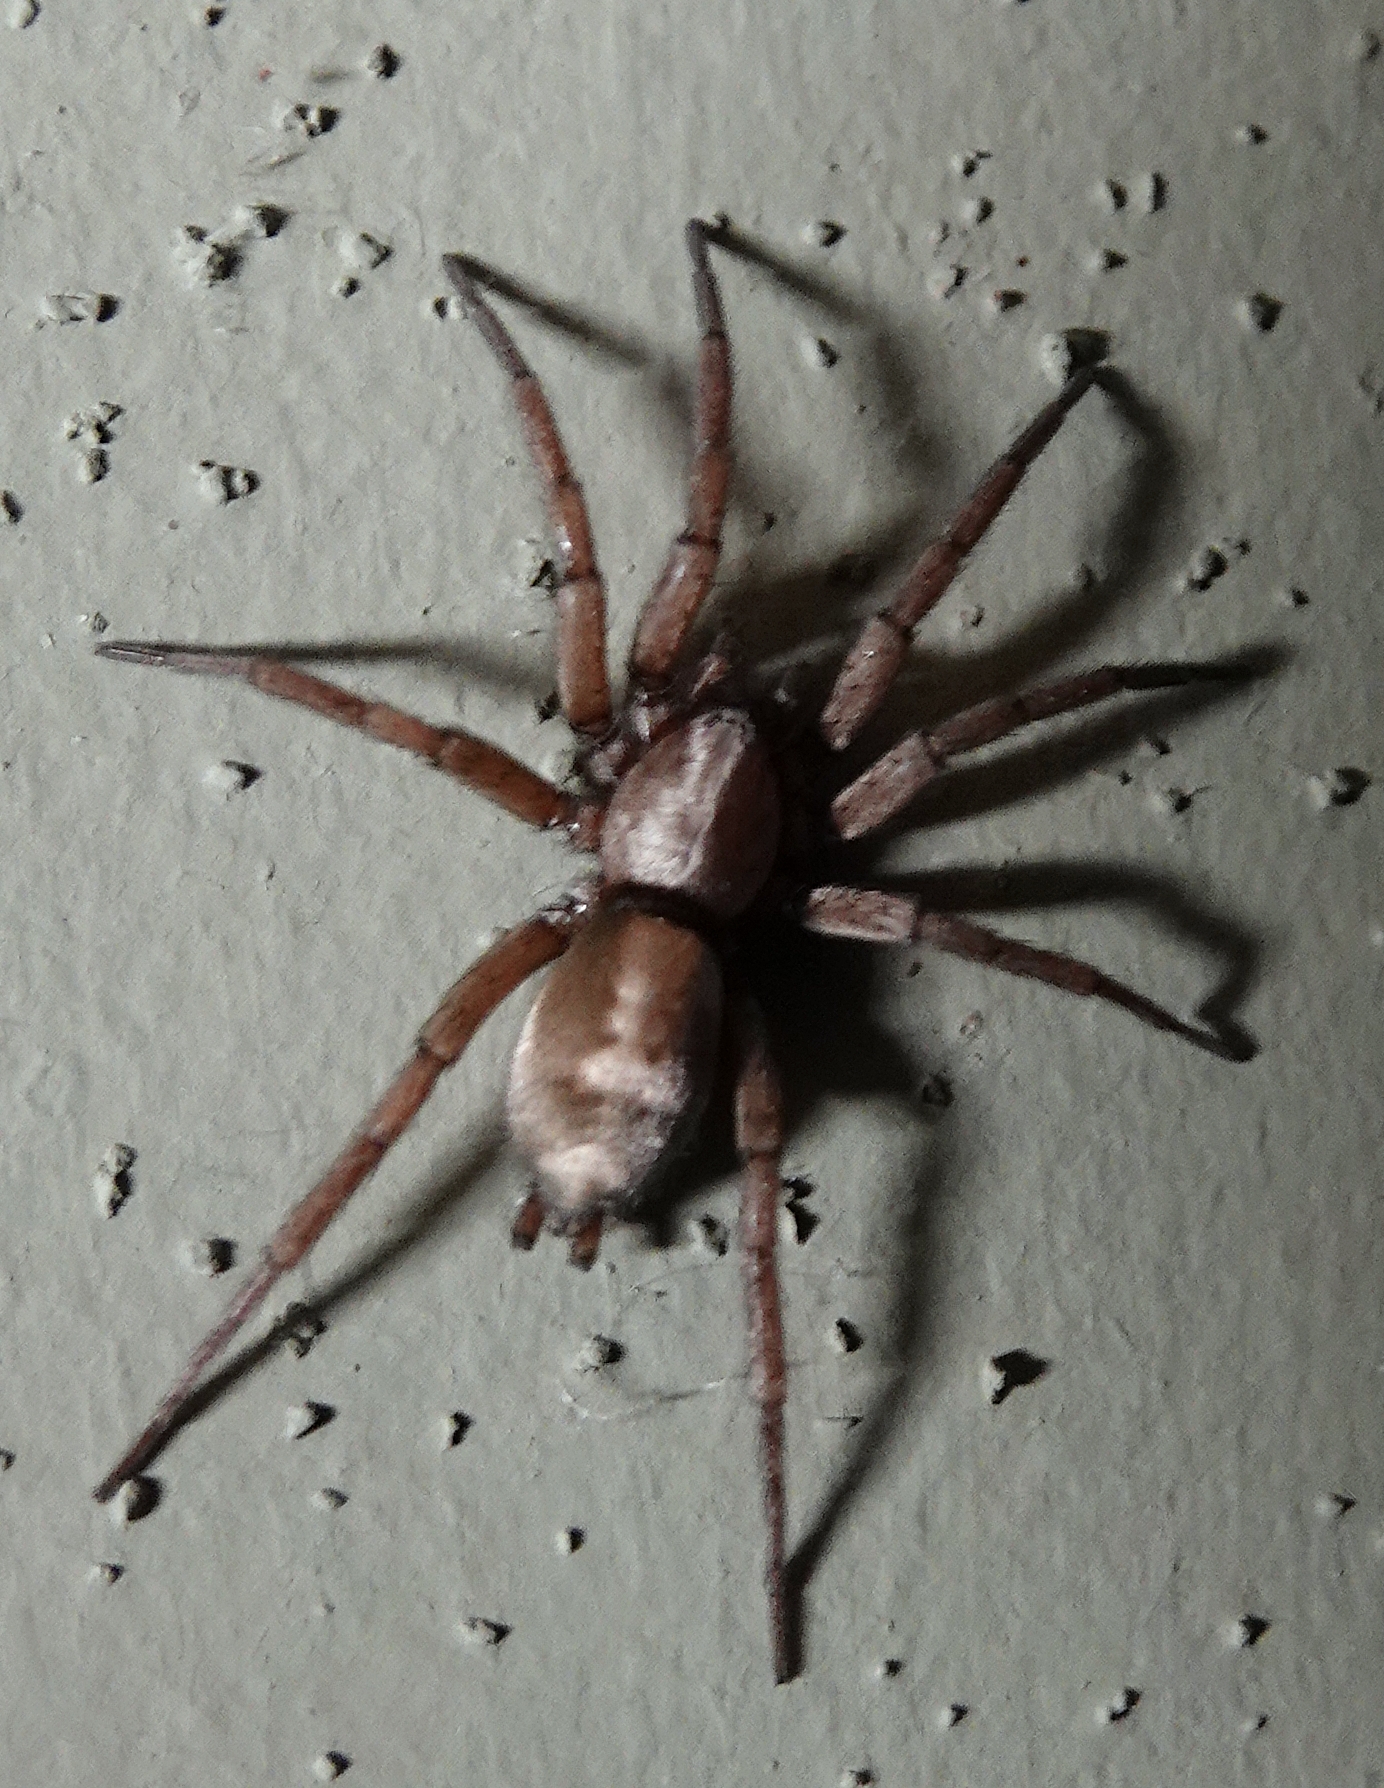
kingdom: Animalia
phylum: Arthropoda
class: Arachnida
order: Araneae
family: Gnaphosidae
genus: Herpyllus
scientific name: Herpyllus ecclesiasticus
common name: Eastern parson spider
